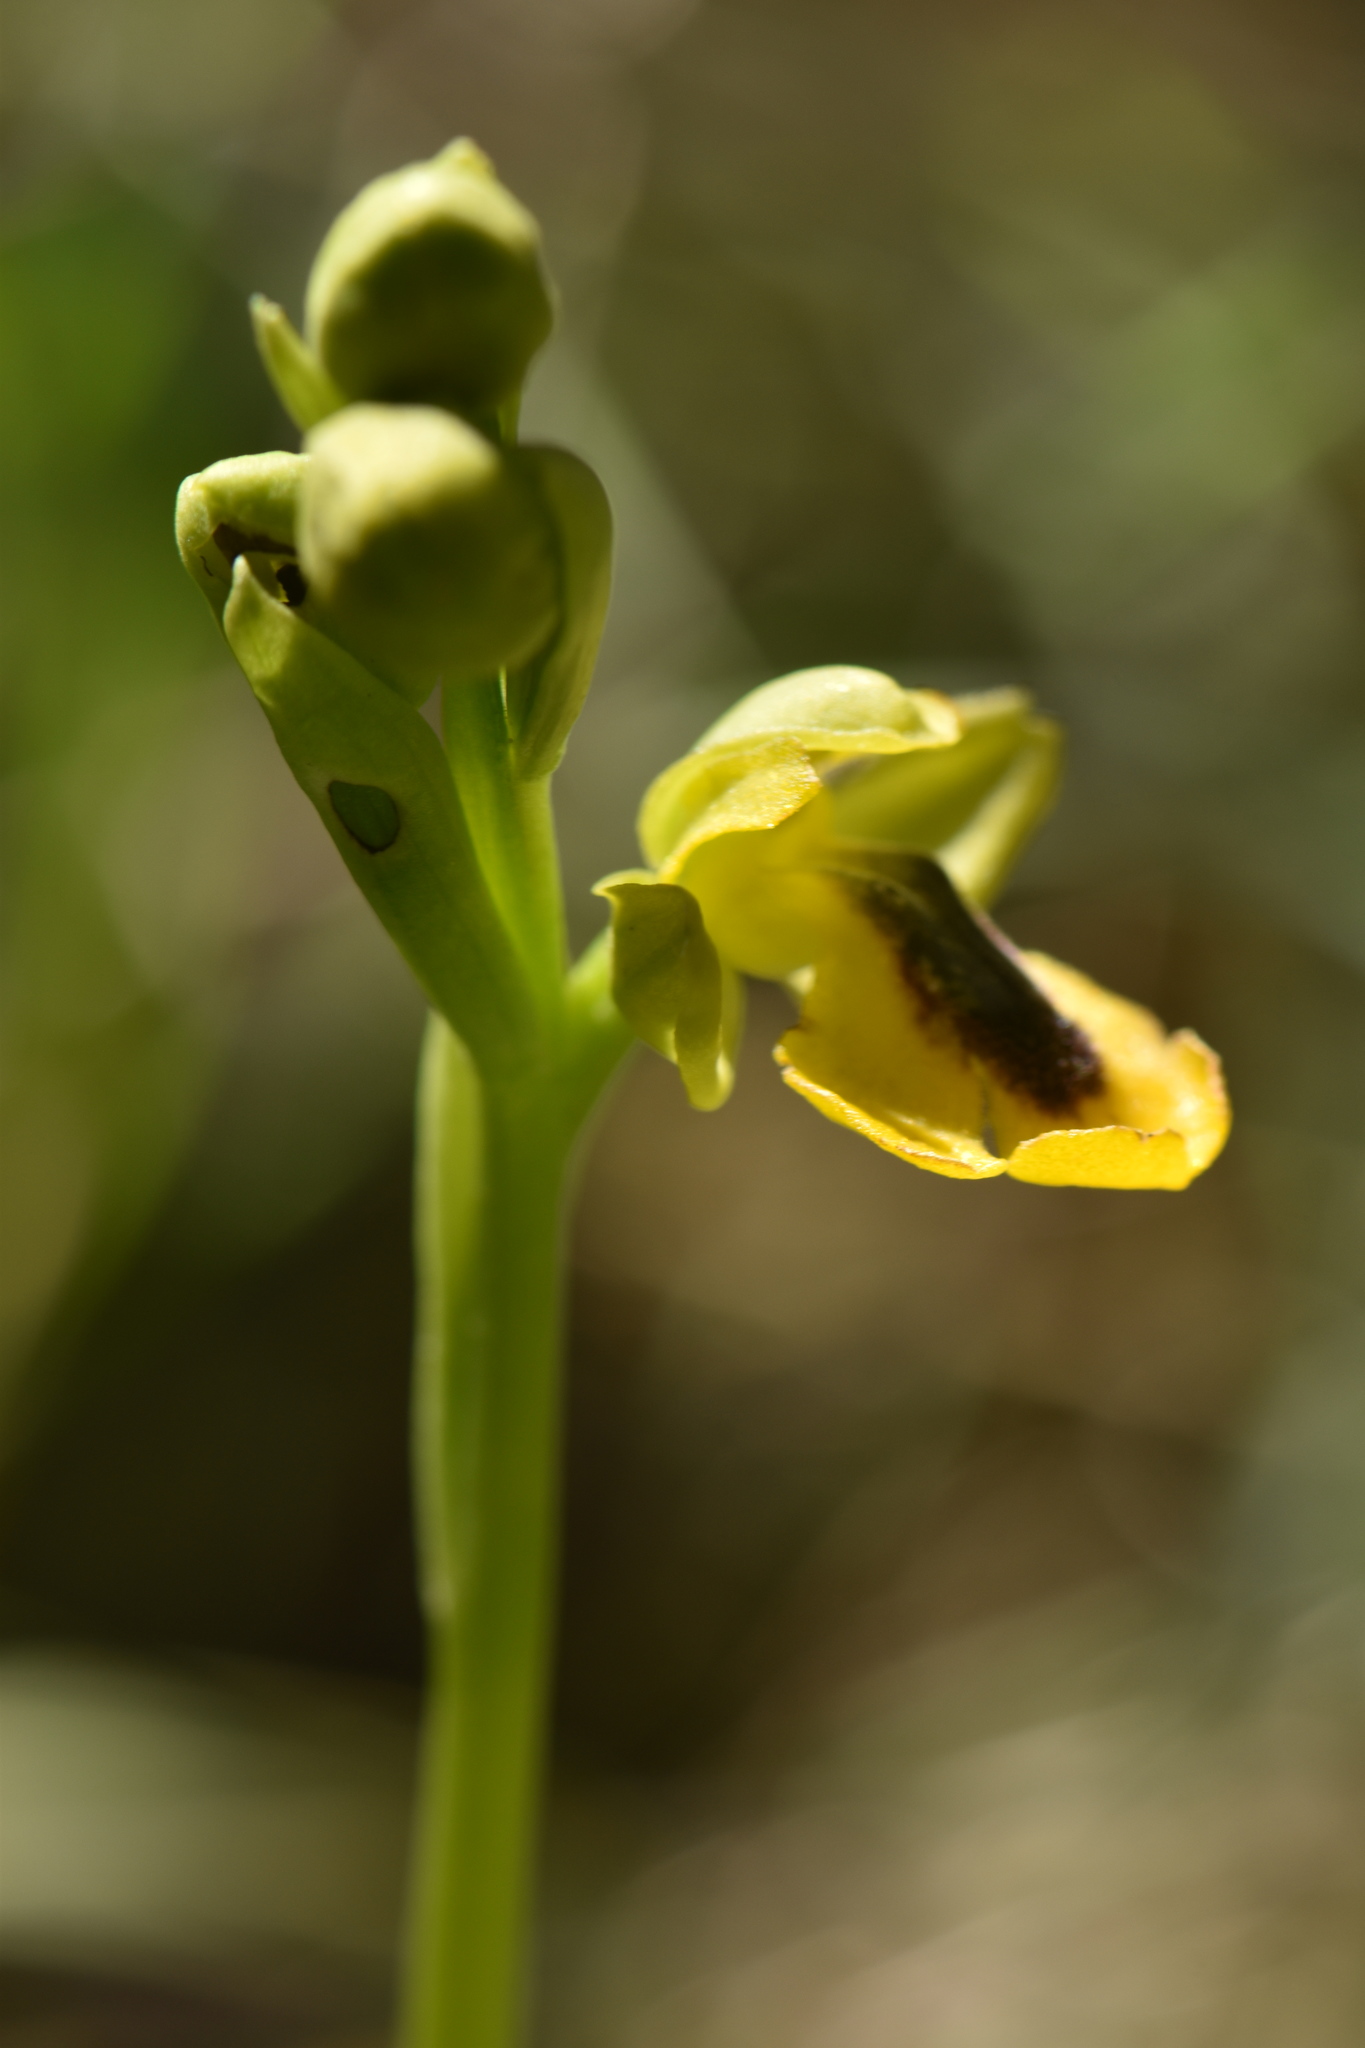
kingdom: Plantae
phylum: Tracheophyta
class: Liliopsida
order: Asparagales
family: Orchidaceae
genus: Ophrys
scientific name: Ophrys lutea
